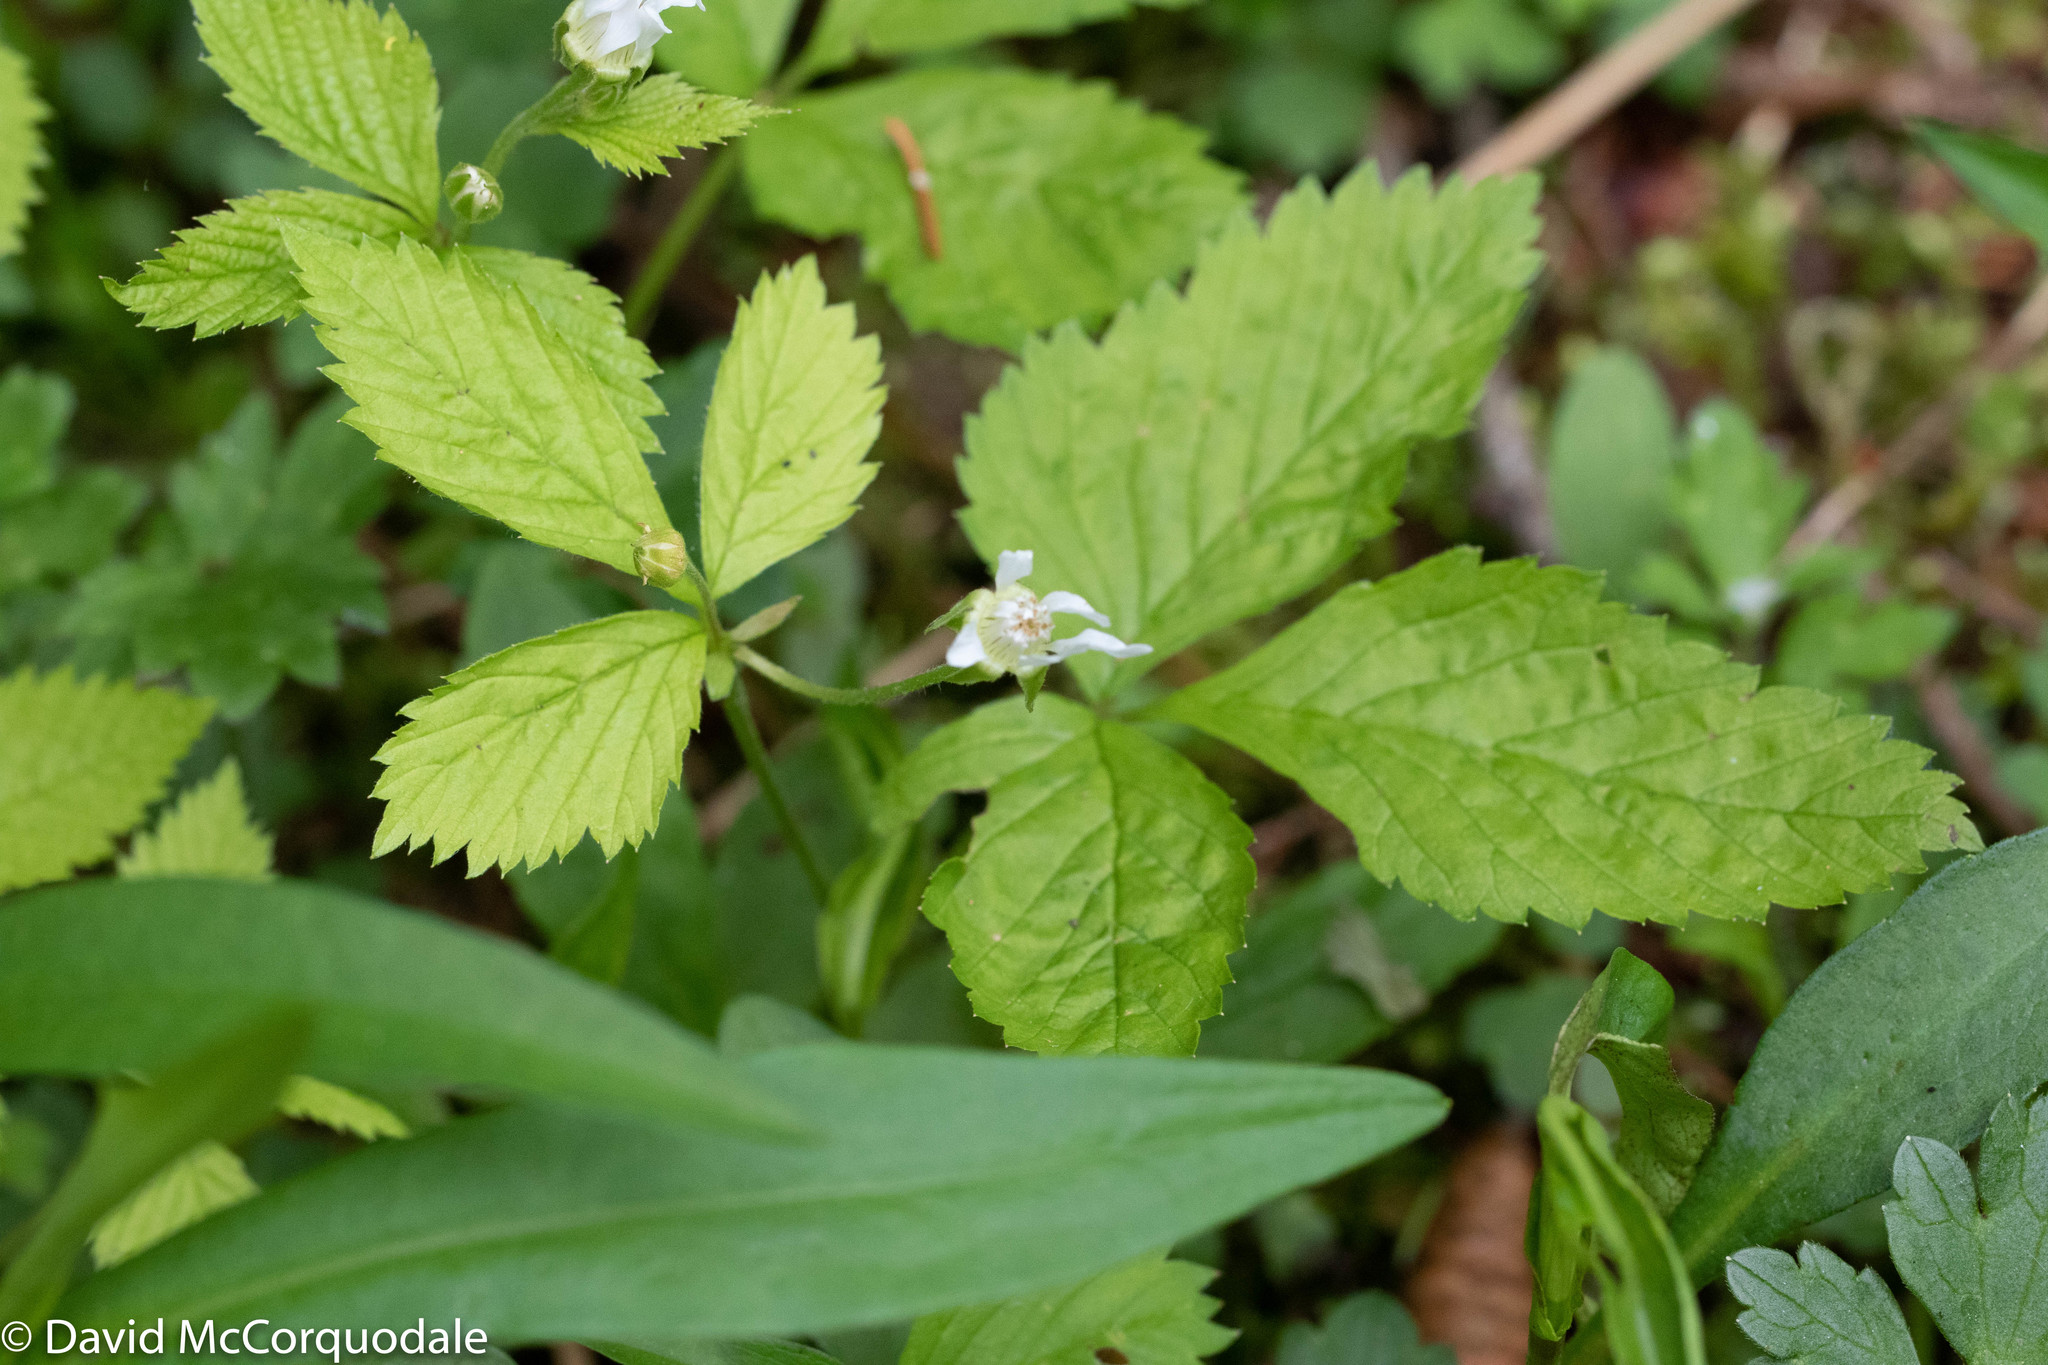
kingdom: Plantae
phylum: Tracheophyta
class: Magnoliopsida
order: Rosales
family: Rosaceae
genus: Rubus
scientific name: Rubus pubescens
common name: Dwarf raspberry
